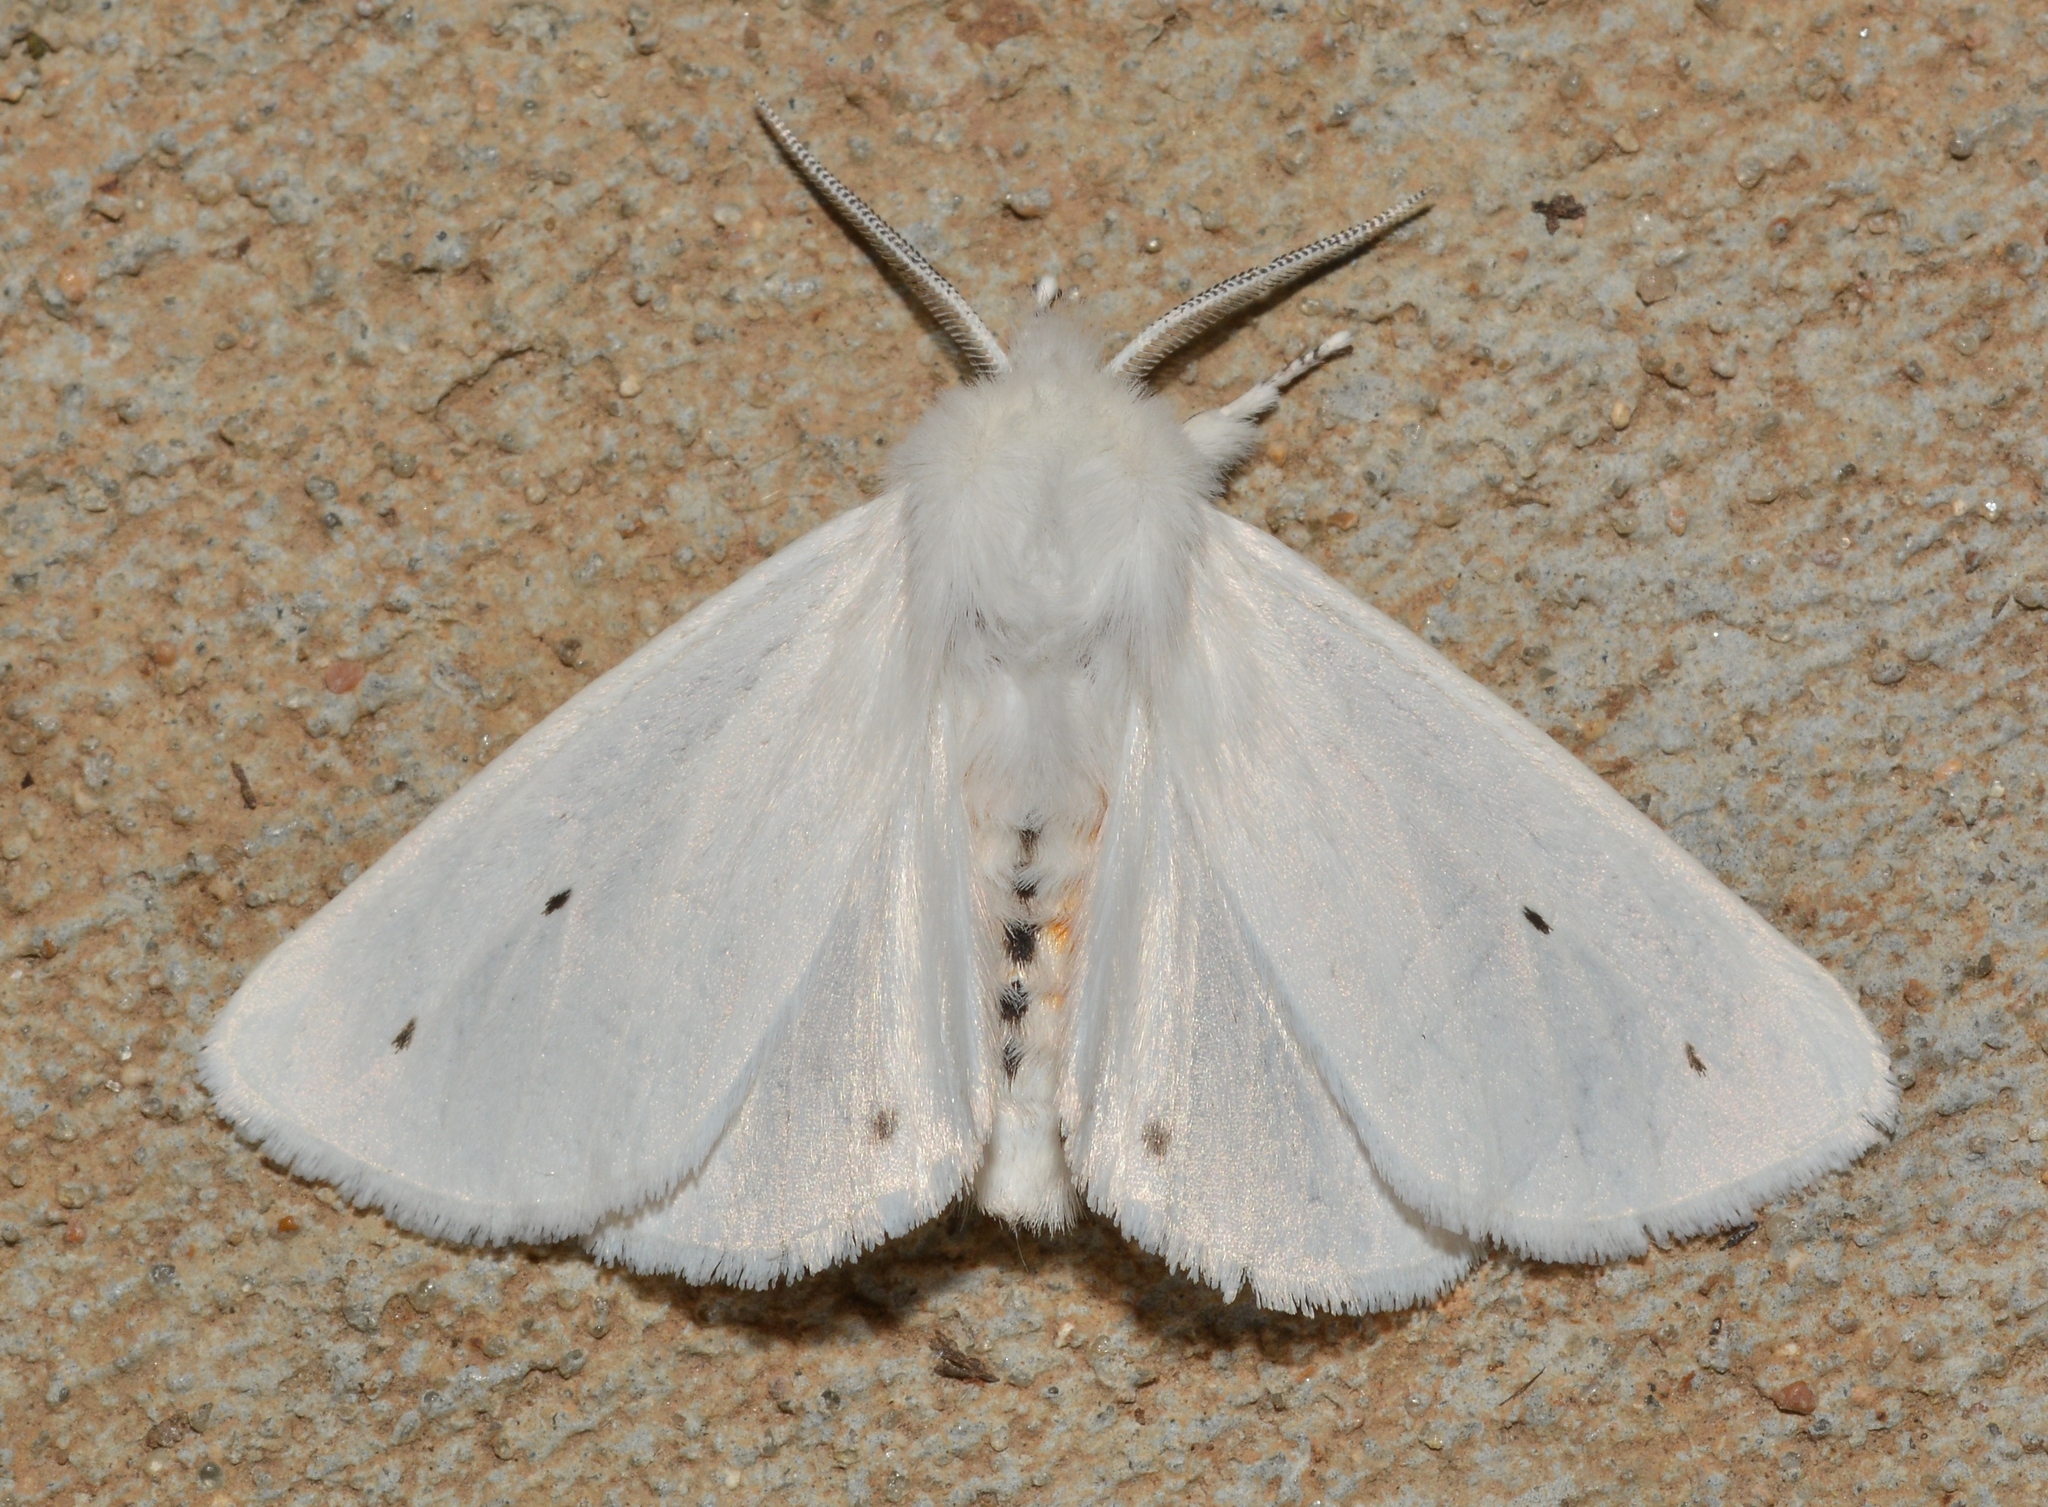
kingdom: Animalia
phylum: Arthropoda
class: Insecta
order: Lepidoptera
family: Erebidae
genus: Spilosoma
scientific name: Spilosoma virginica
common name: Virginia tiger moth
